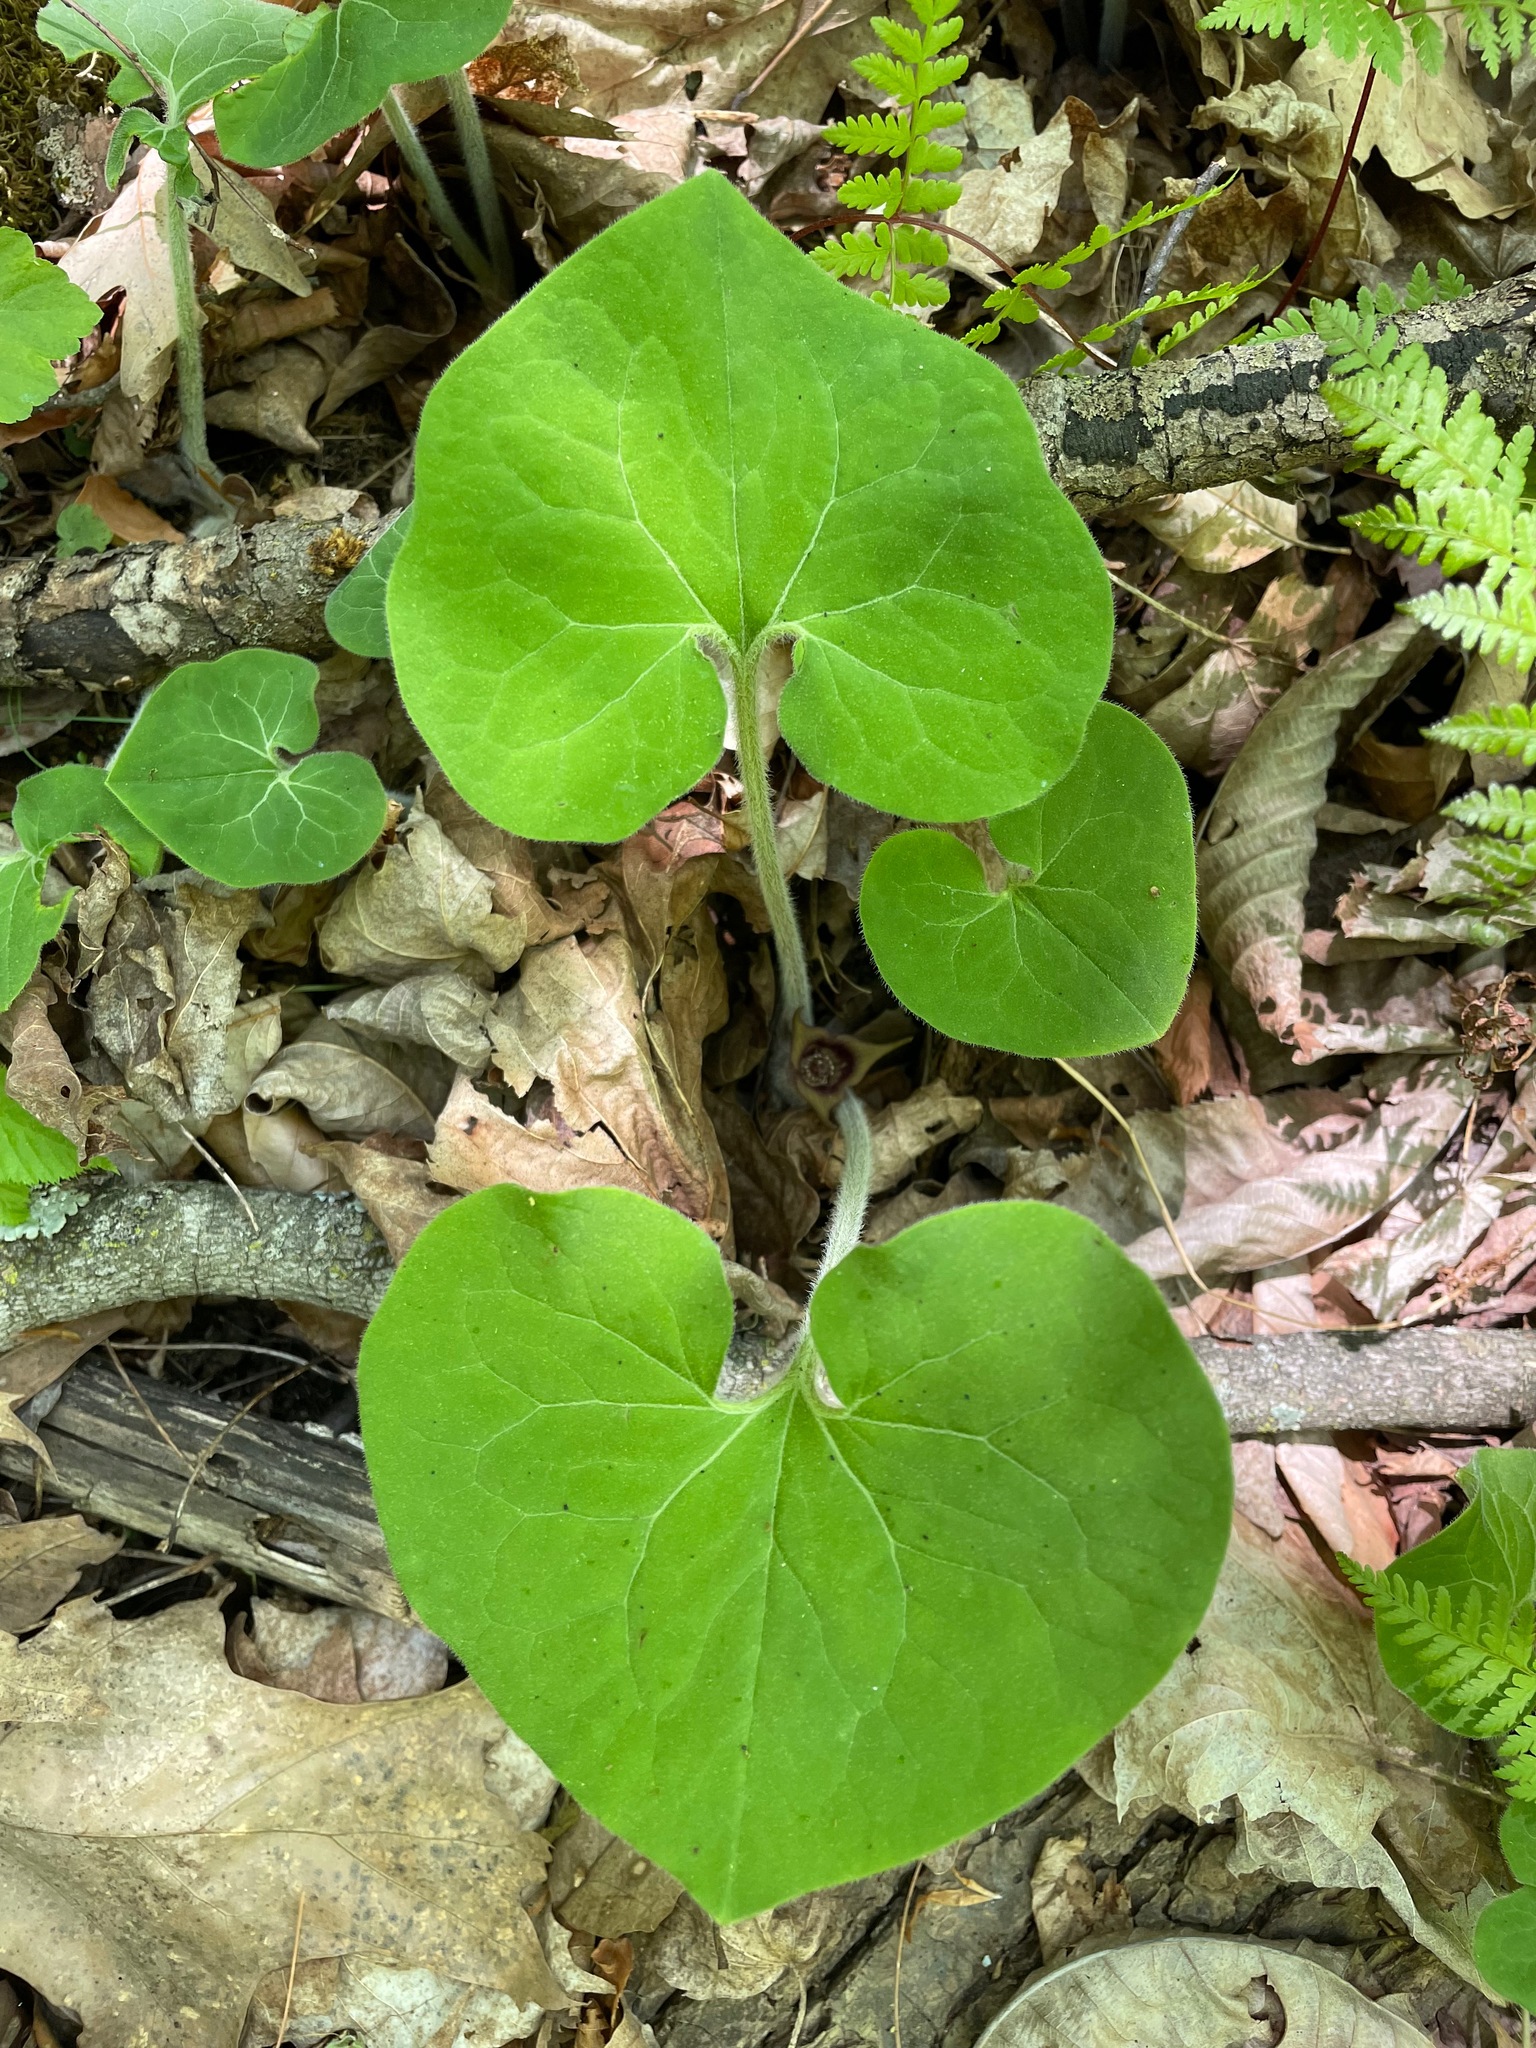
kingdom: Plantae
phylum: Tracheophyta
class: Magnoliopsida
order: Piperales
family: Aristolochiaceae
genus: Asarum
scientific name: Asarum canadense
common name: Wild ginger
